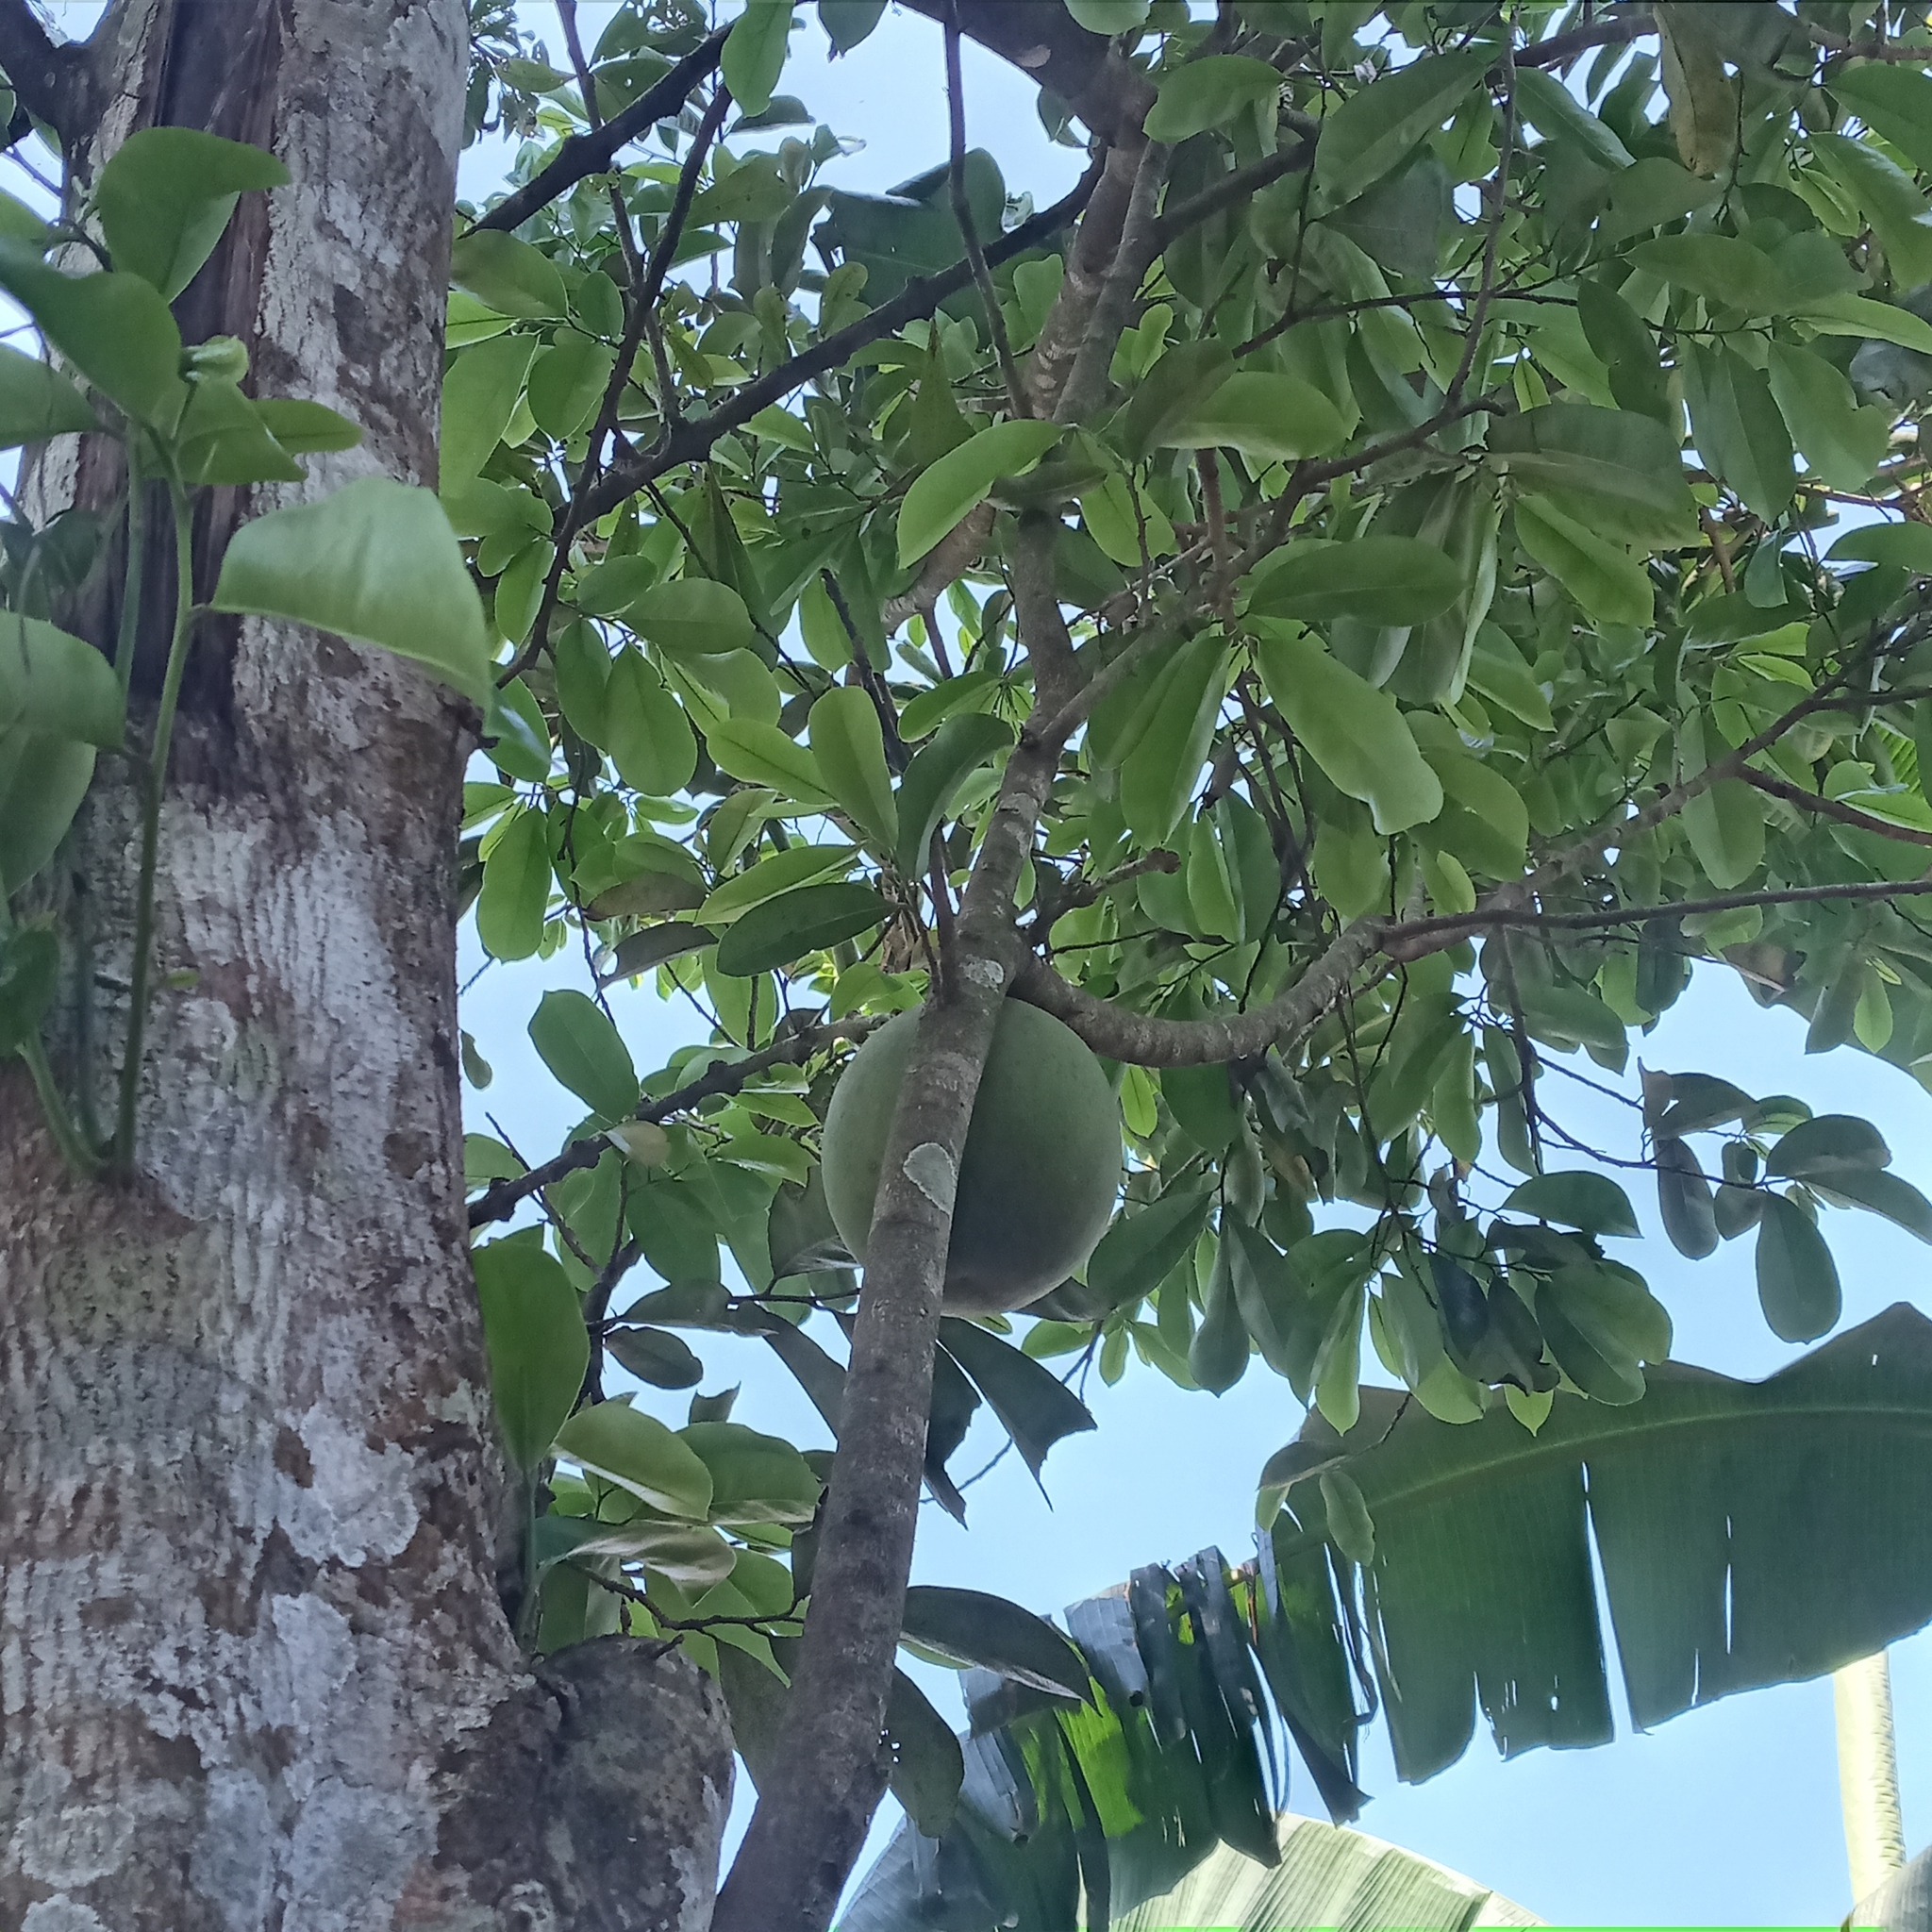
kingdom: Plantae
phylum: Tracheophyta
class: Magnoliopsida
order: Lamiales
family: Bignoniaceae
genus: Crescentia
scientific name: Crescentia cujete
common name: Calabash
